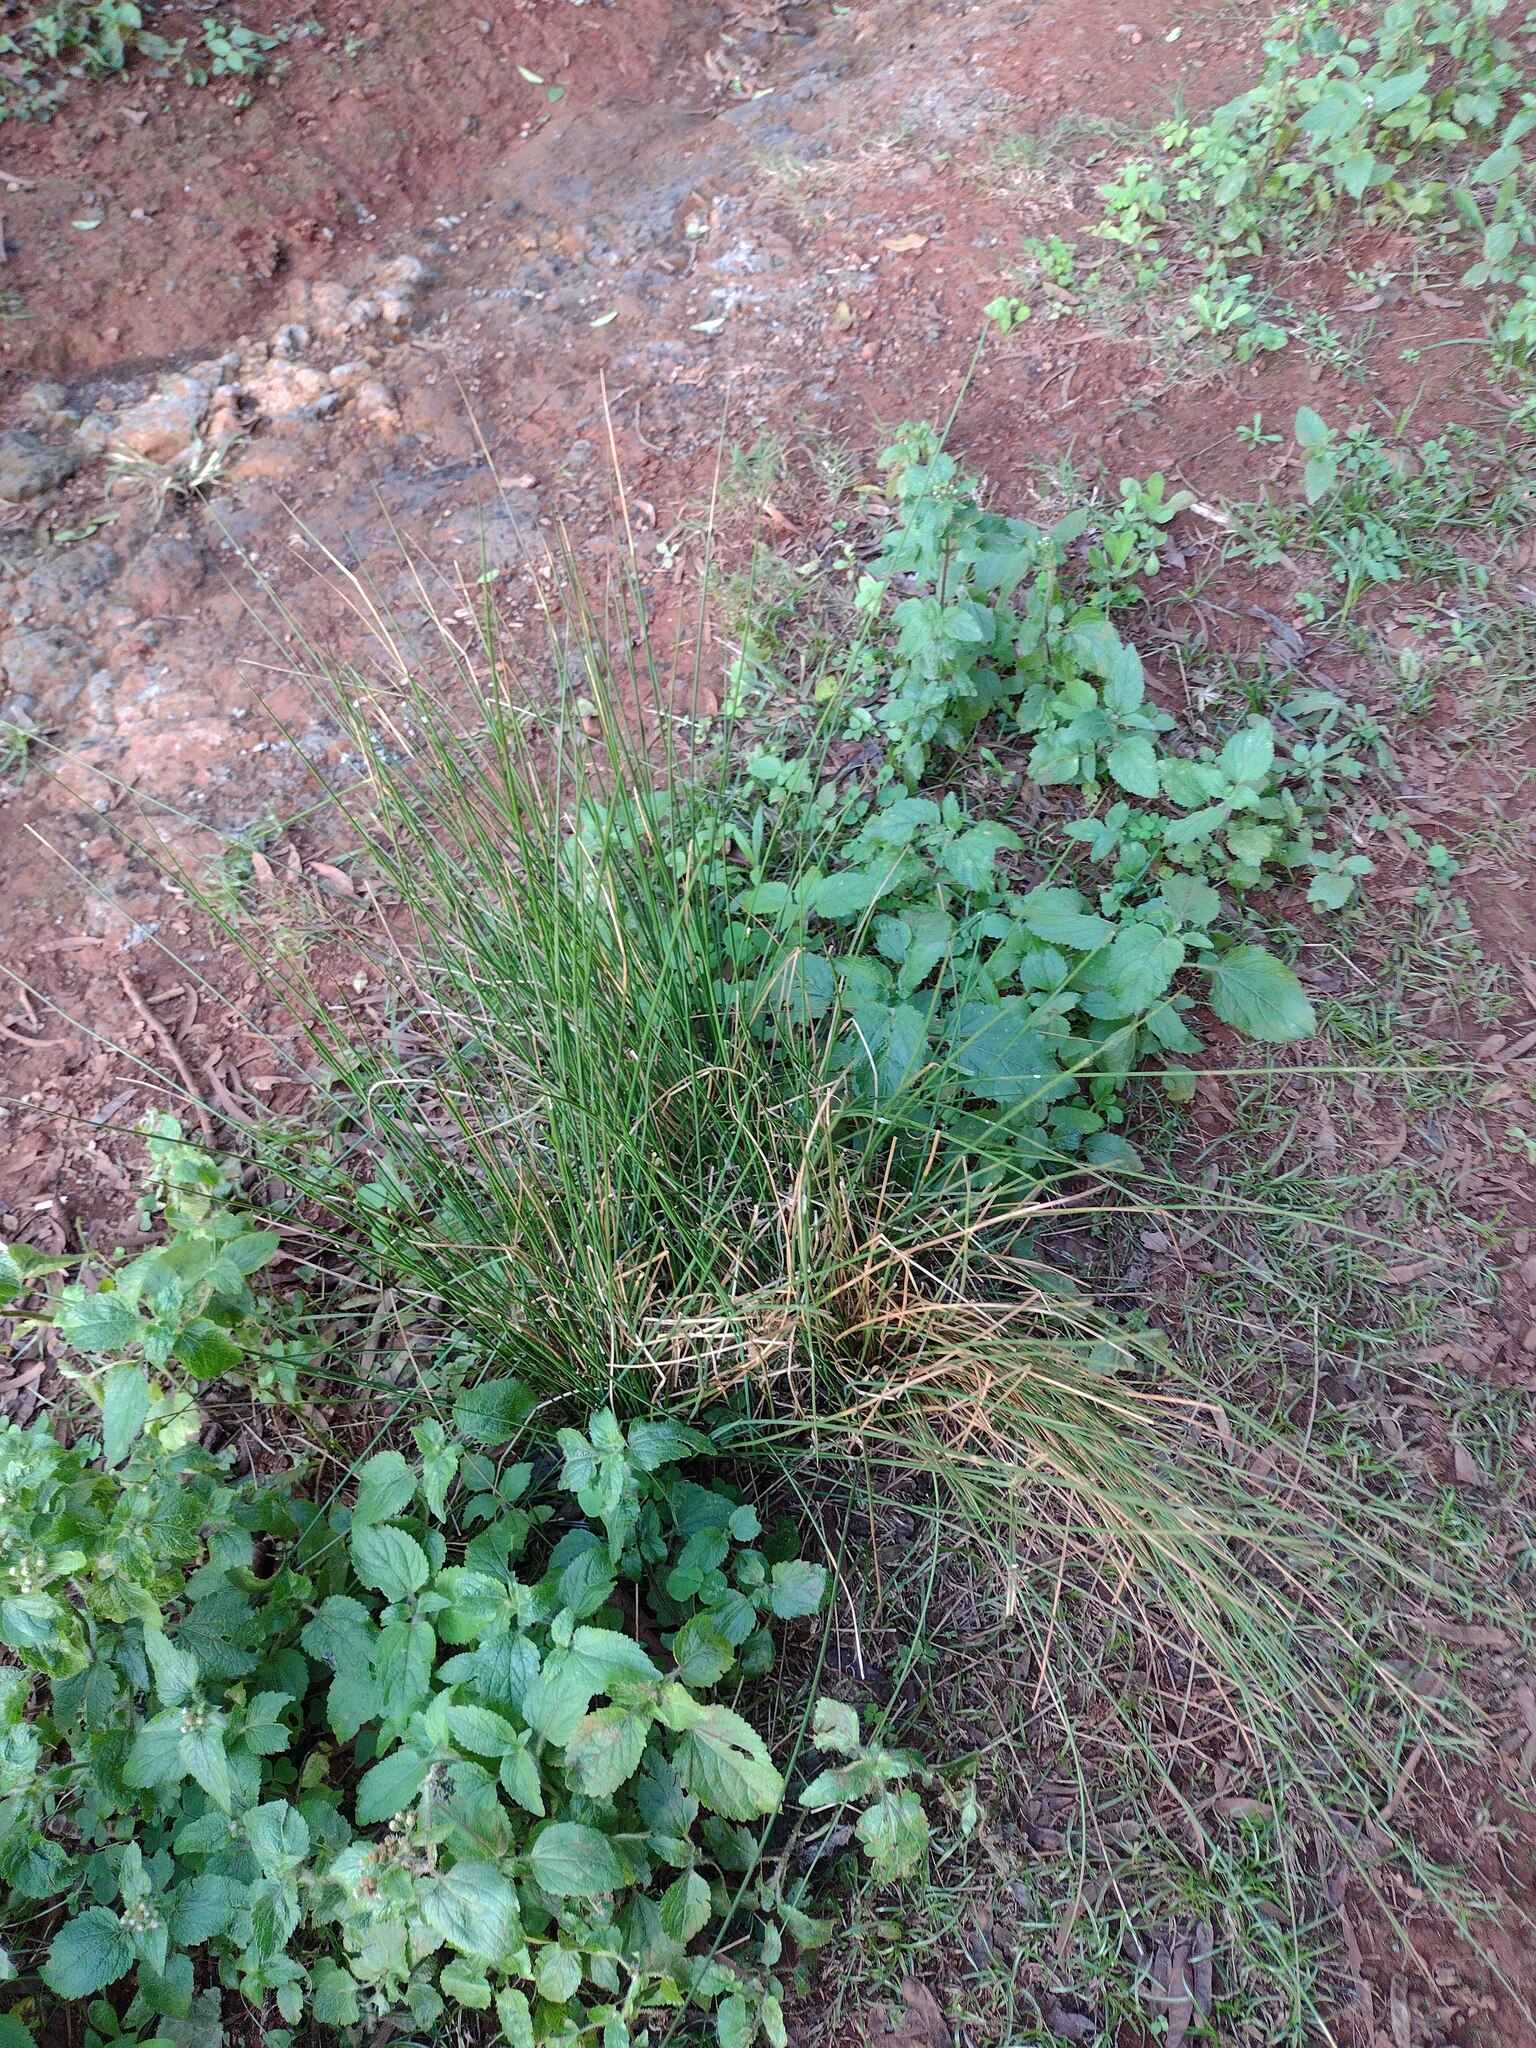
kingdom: Plantae
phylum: Tracheophyta
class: Liliopsida
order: Poales
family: Juncaceae
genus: Juncus
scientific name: Juncus polyanthemus
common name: Manyflower rush
